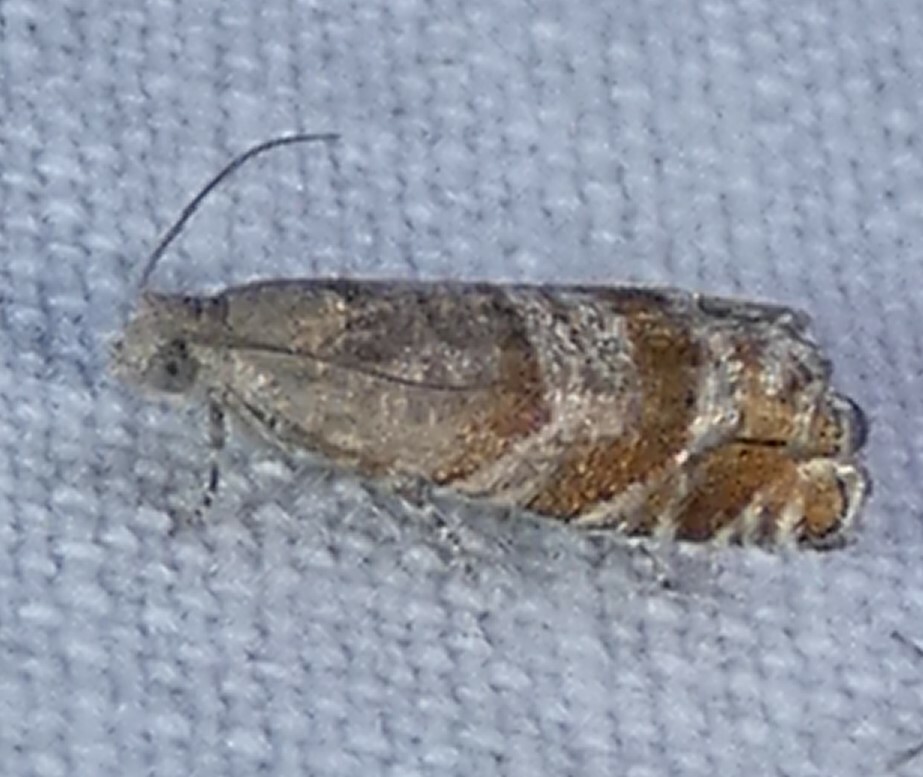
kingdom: Animalia
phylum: Arthropoda
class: Insecta
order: Lepidoptera
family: Tortricidae
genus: Cydia
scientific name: Cydia marita
